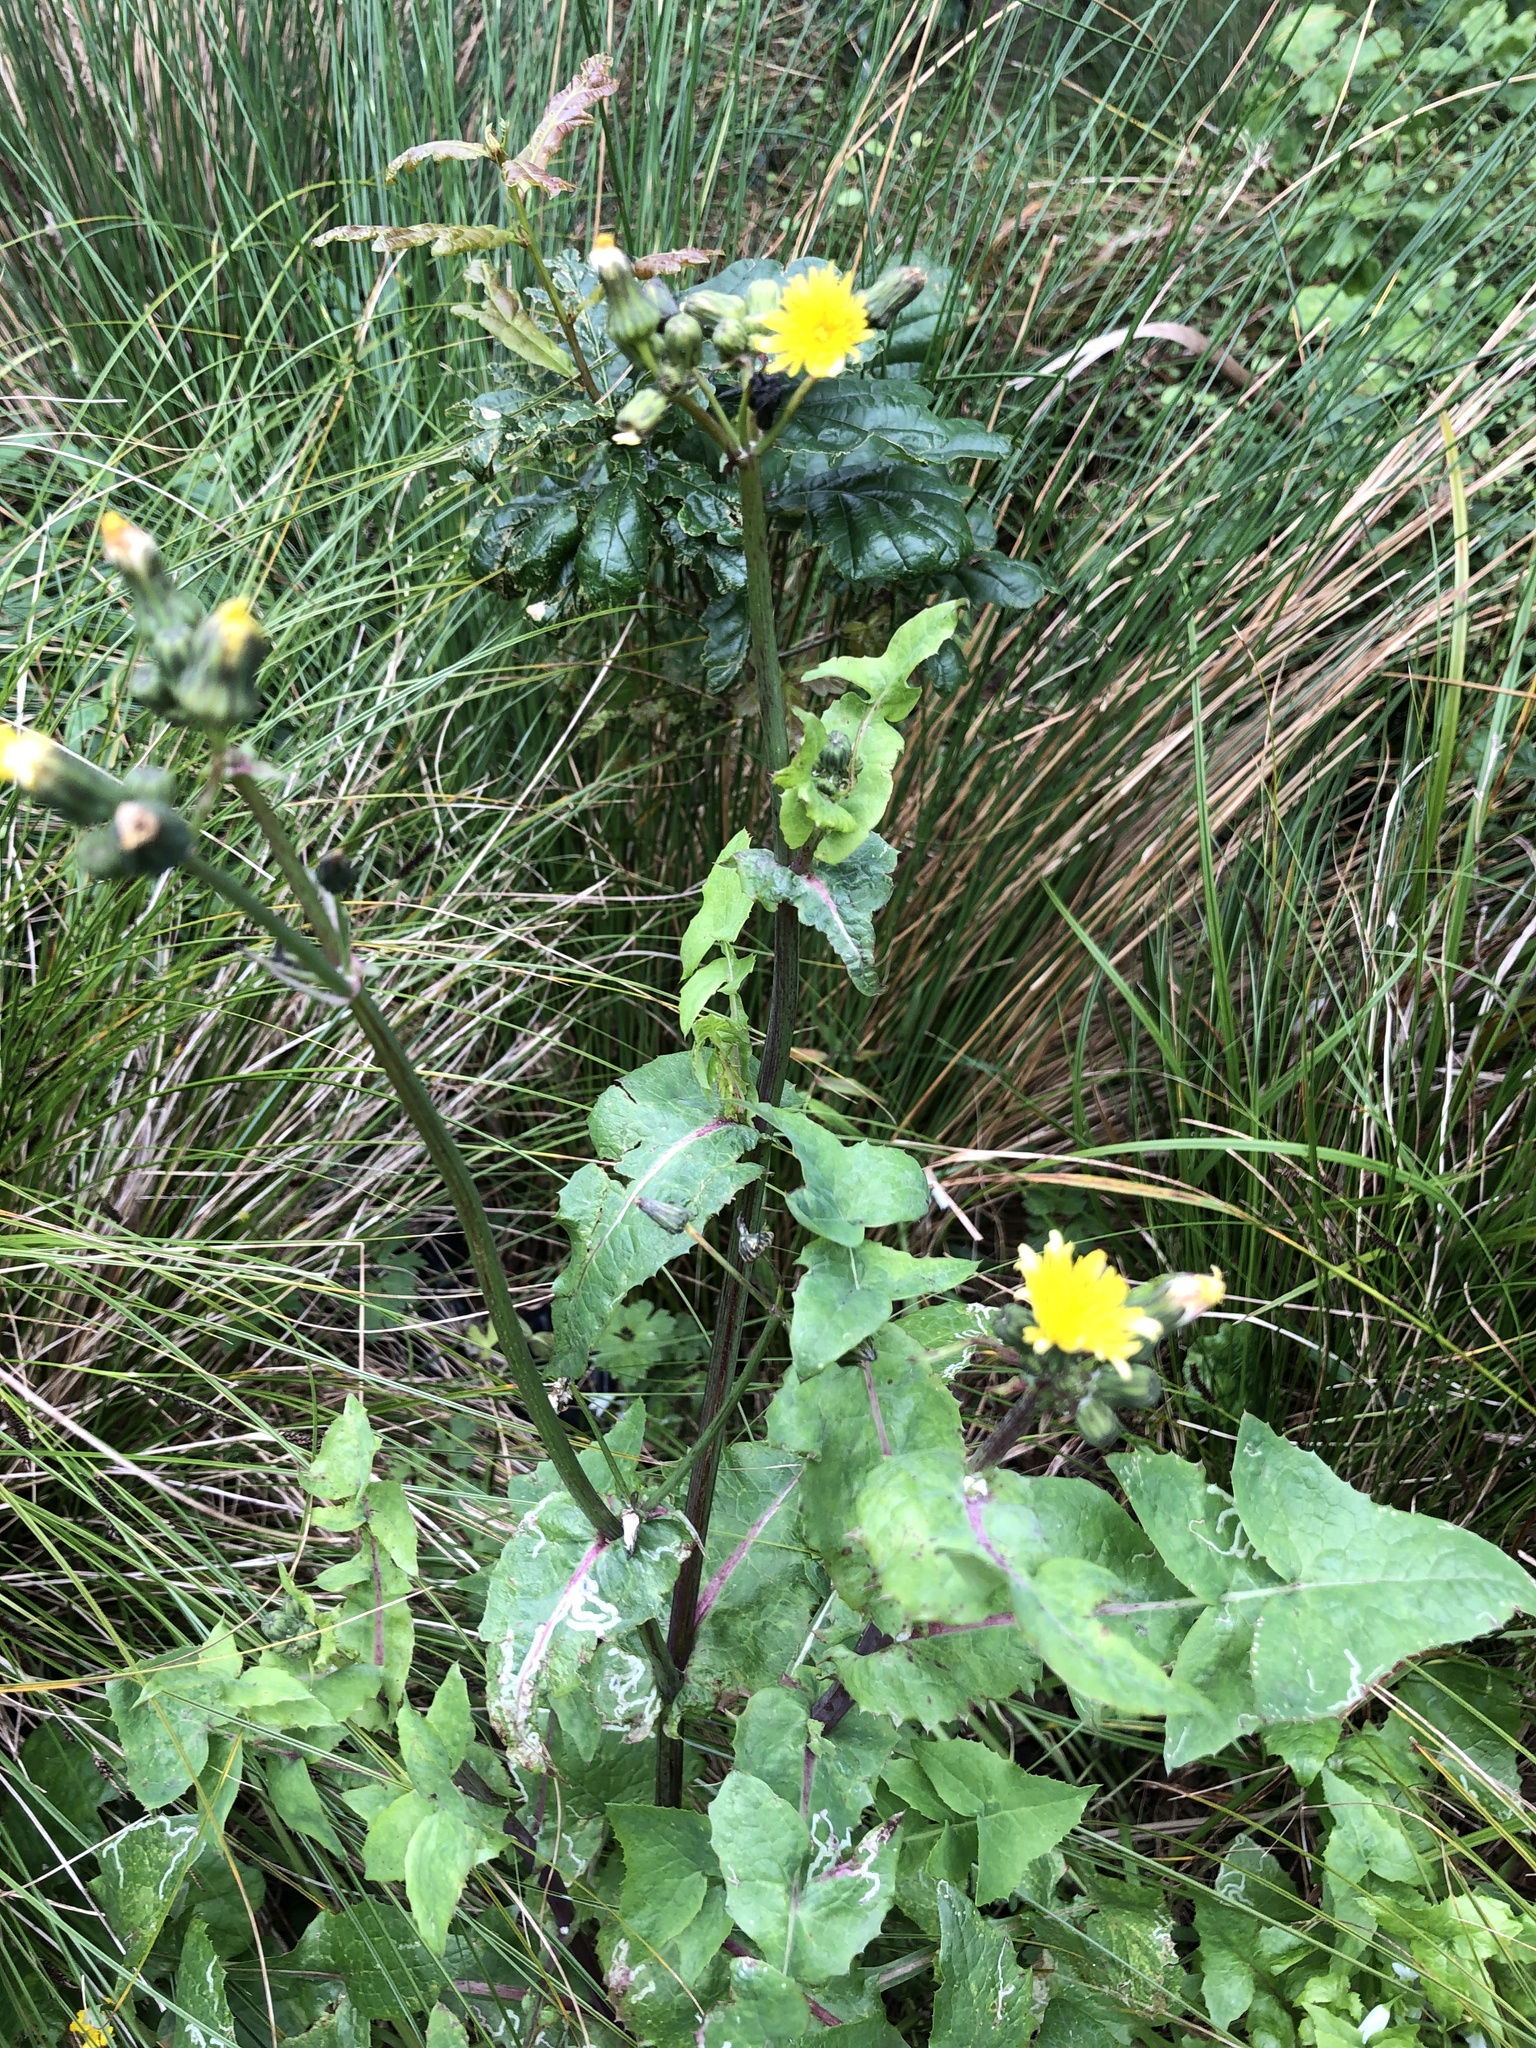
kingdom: Plantae
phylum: Tracheophyta
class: Magnoliopsida
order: Asterales
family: Asteraceae
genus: Sonchus
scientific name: Sonchus oleraceus
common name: Common sowthistle
